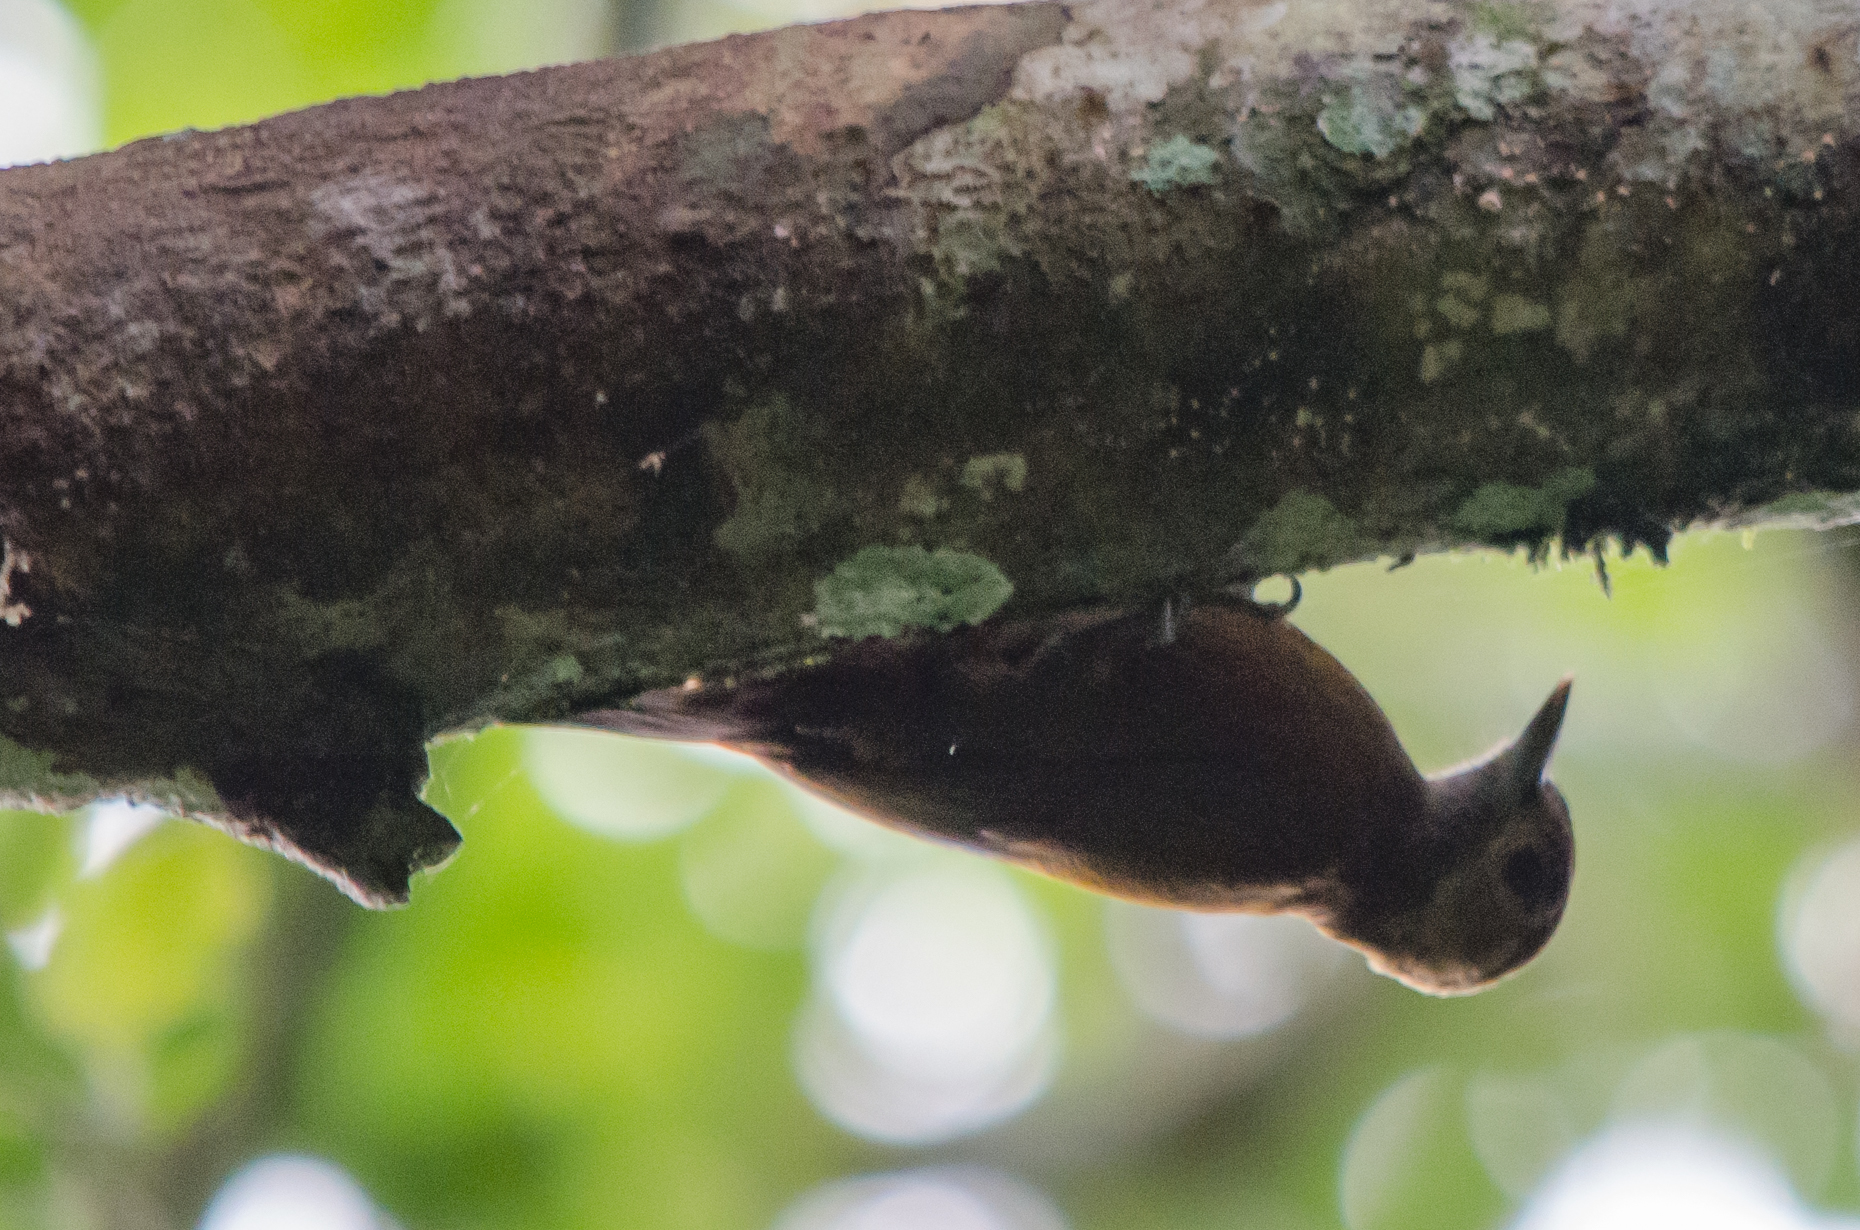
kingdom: Animalia
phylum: Chordata
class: Aves
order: Piciformes
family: Picidae
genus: Leuconotopicus
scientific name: Leuconotopicus fumigatus
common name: Smoky-brown woodpecker
